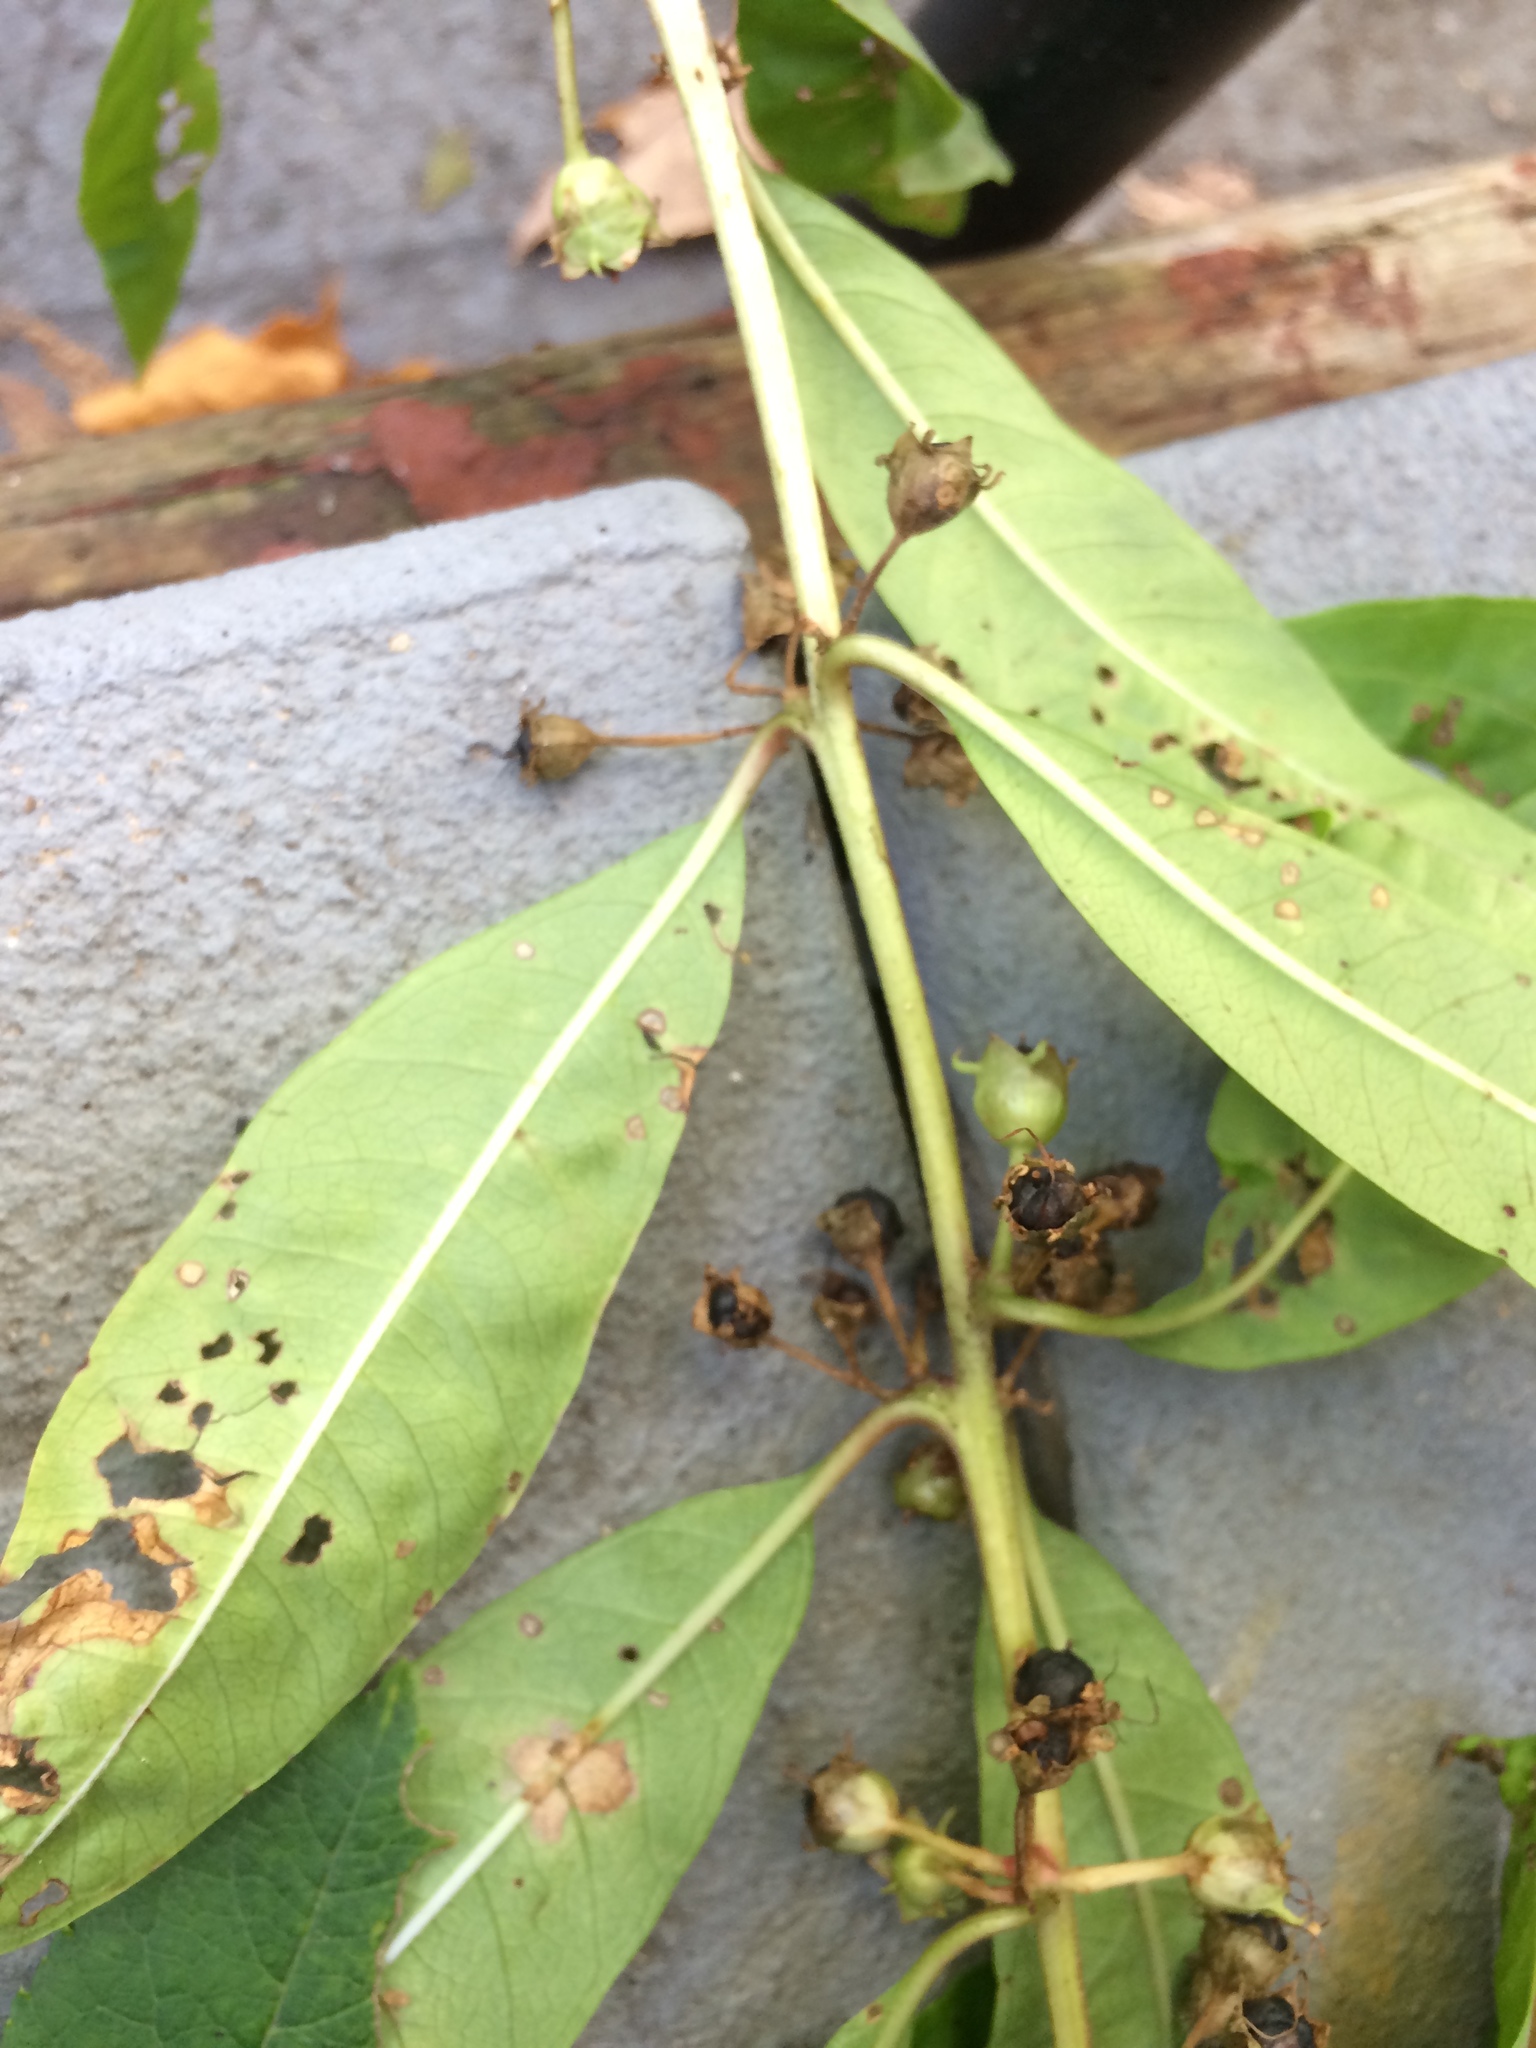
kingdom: Plantae
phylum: Tracheophyta
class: Magnoliopsida
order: Myrtales
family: Lythraceae
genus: Decodon
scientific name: Decodon verticillatus
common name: Hairy swamp loosestrife
